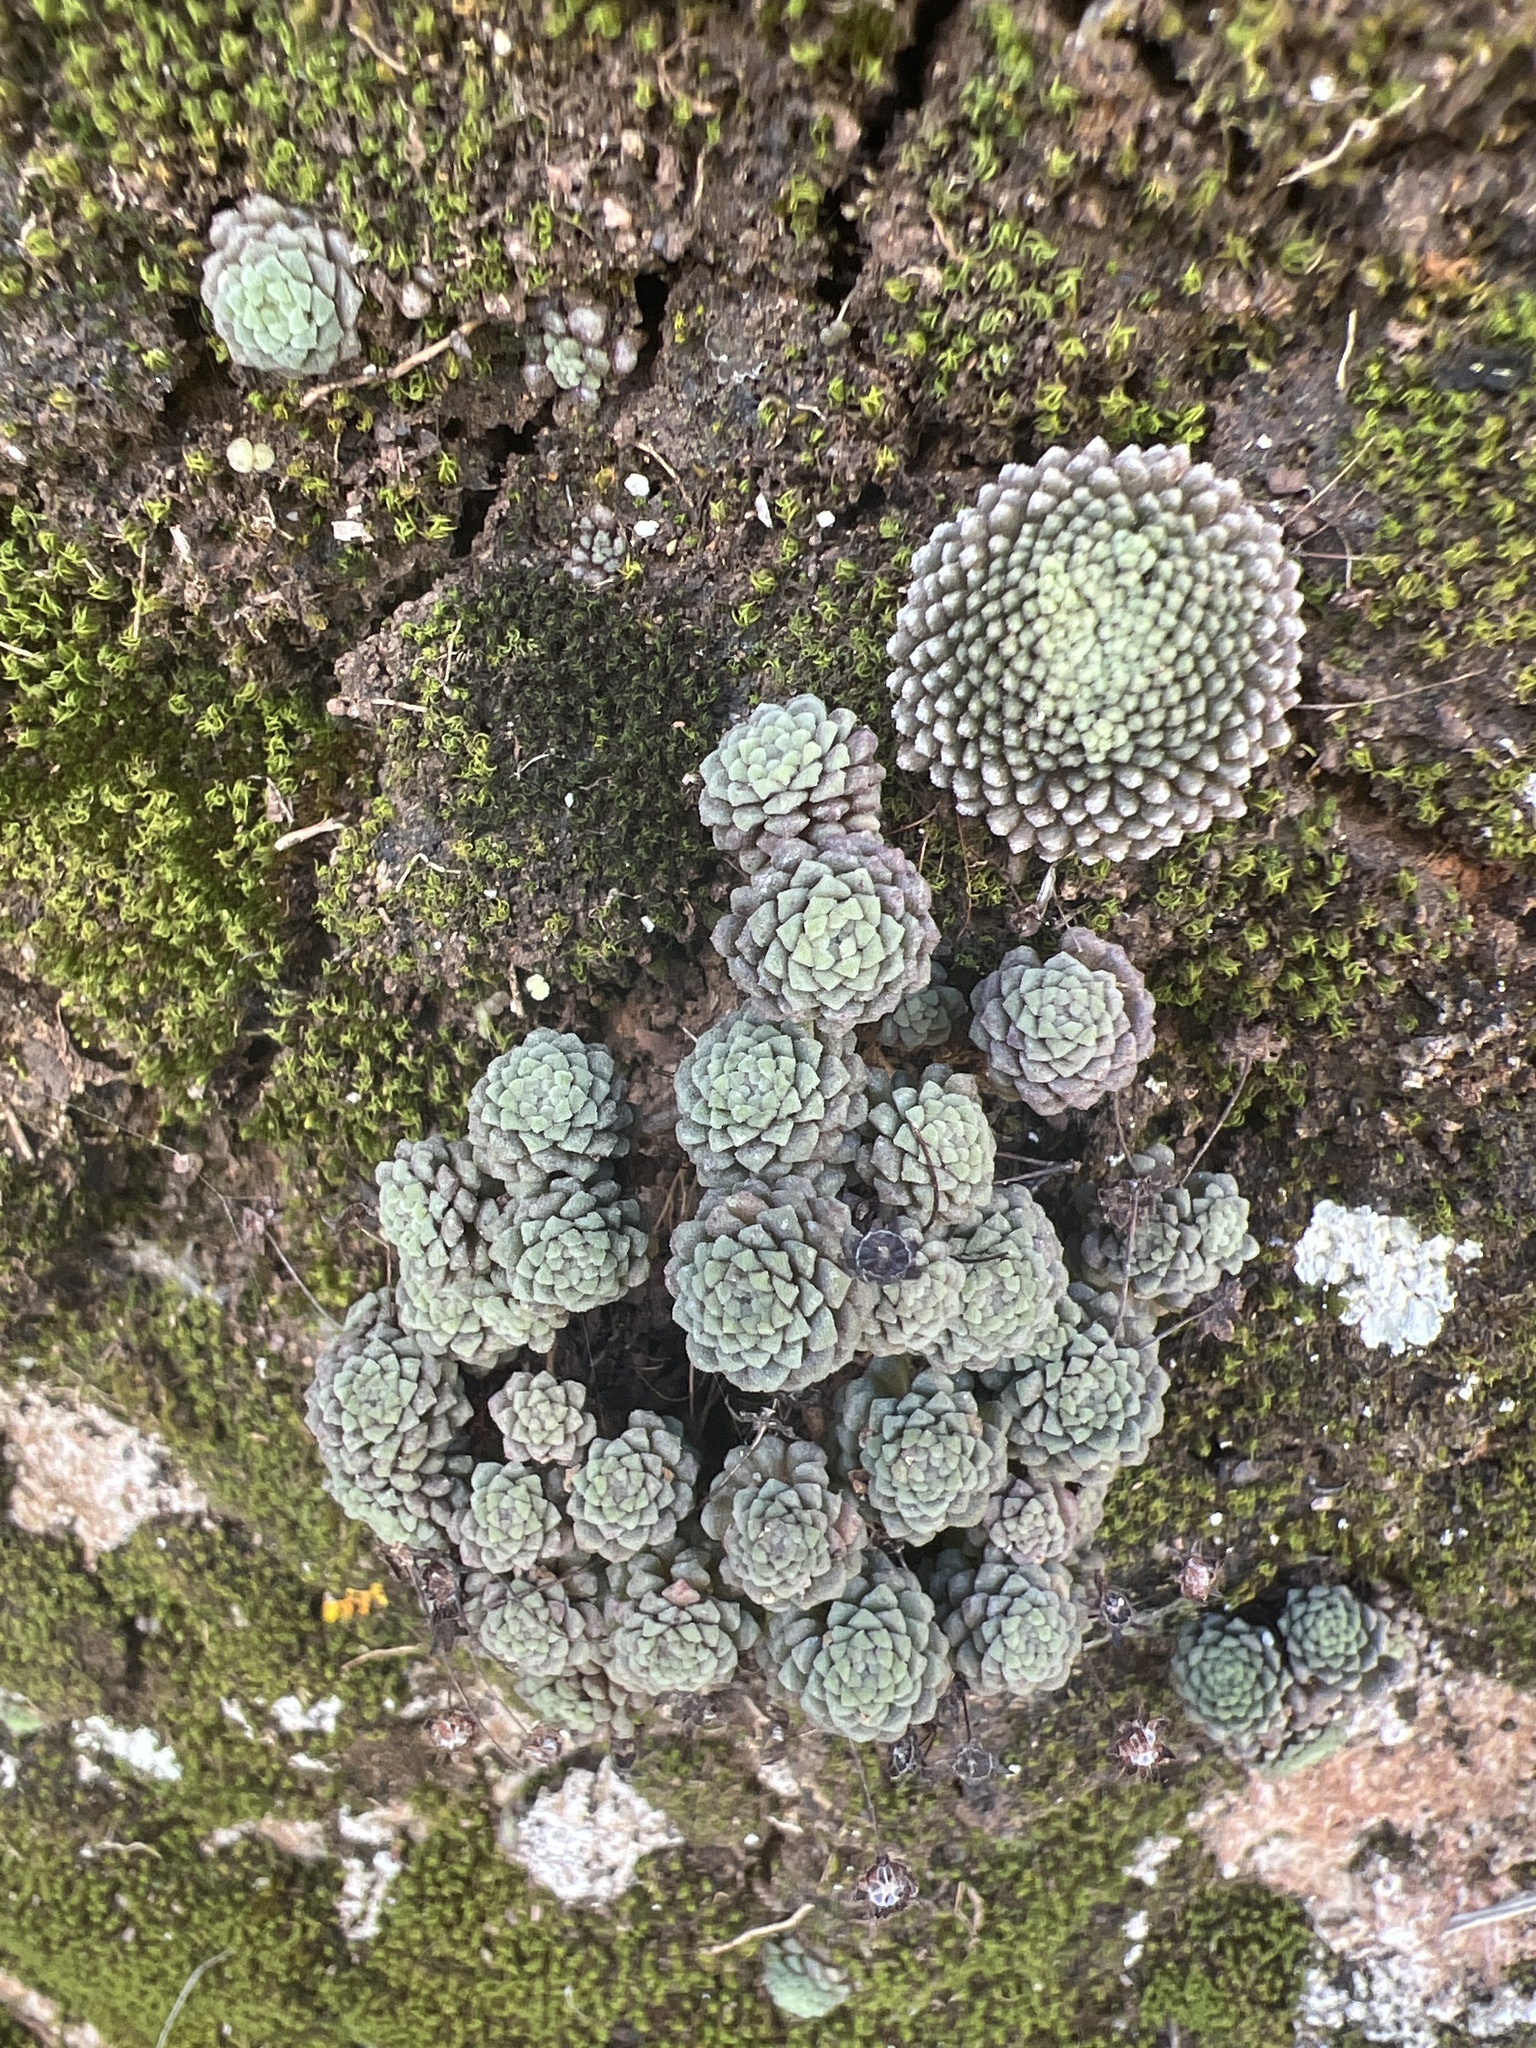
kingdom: Plantae
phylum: Tracheophyta
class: Magnoliopsida
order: Saxifragales
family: Crassulaceae
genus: Monanthes
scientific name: Monanthes polyphylla
